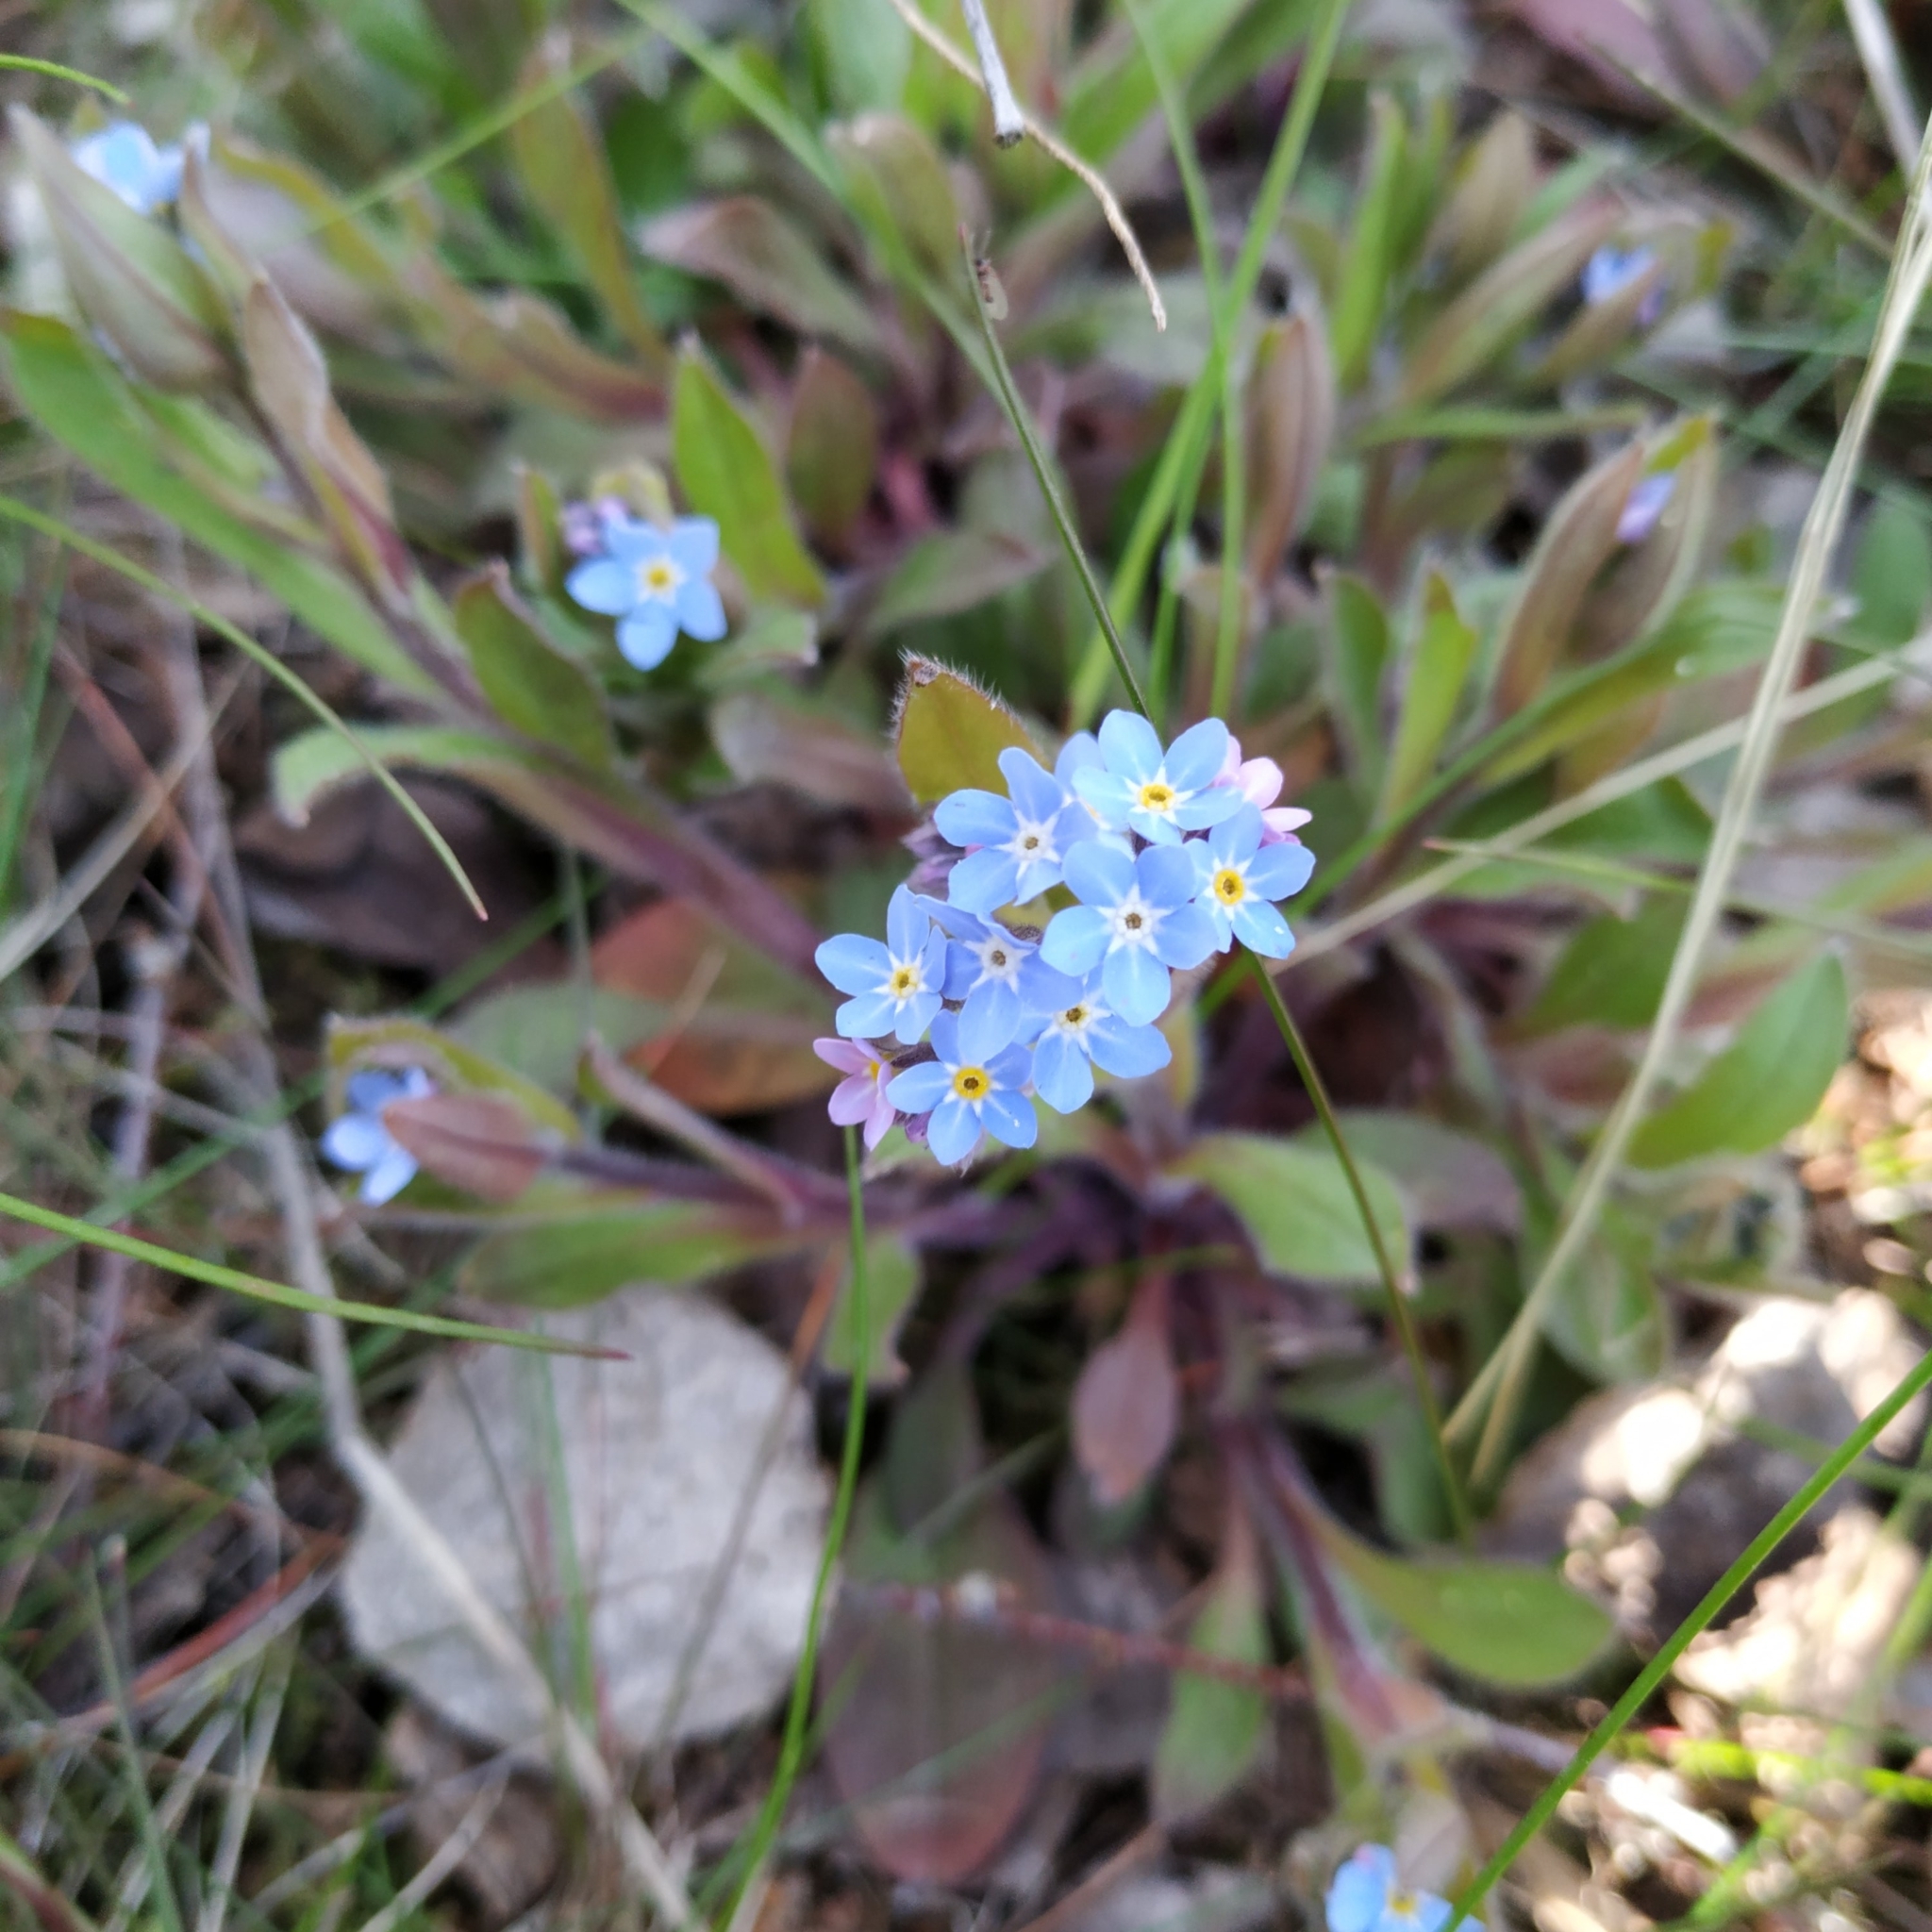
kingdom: Plantae
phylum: Tracheophyta
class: Magnoliopsida
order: Boraginales
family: Boraginaceae
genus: Myosotis
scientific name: Myosotis sylvatica
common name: Wood forget-me-not
